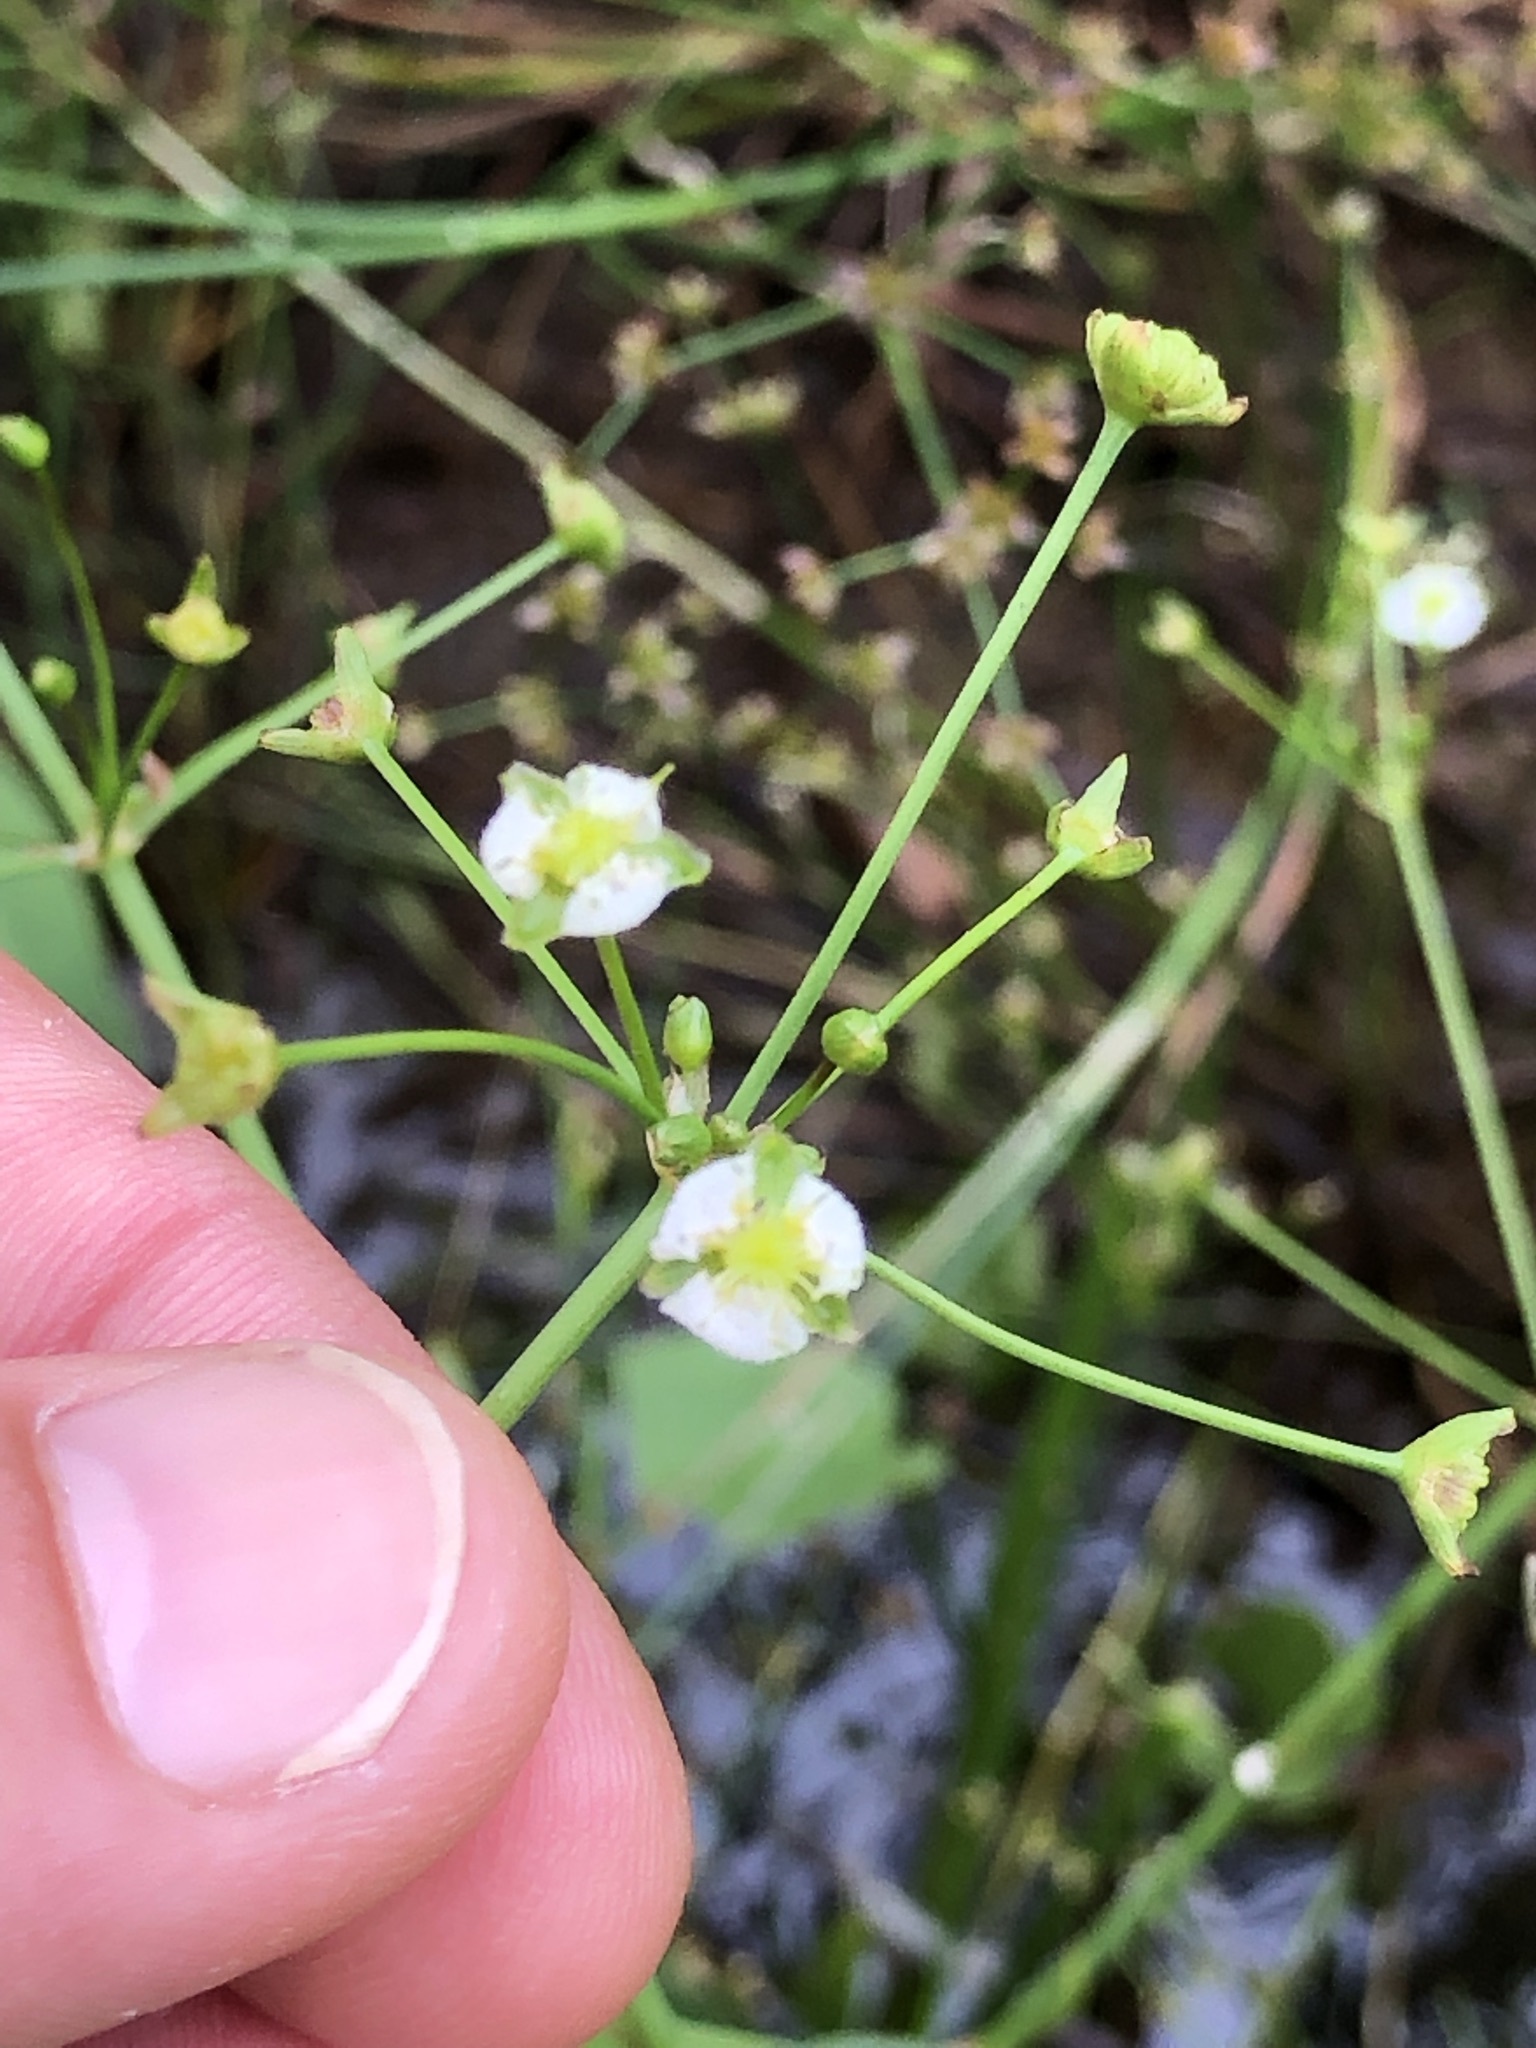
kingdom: Plantae
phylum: Tracheophyta
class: Liliopsida
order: Alismatales
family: Alismataceae
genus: Alisma
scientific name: Alisma plantago-aquatica
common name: Water-plantain
